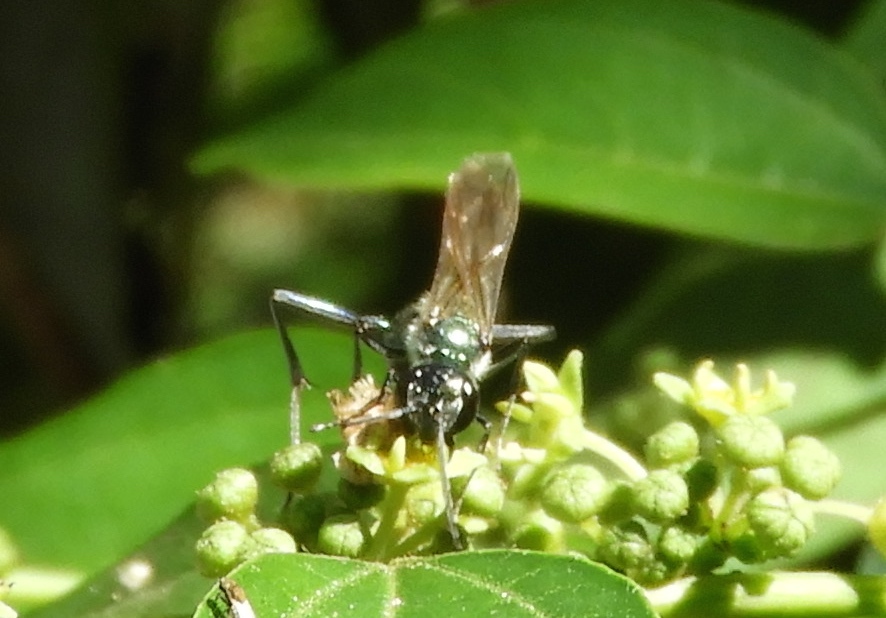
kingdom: Animalia
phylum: Arthropoda
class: Insecta
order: Hymenoptera
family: Sphecidae
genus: Chalybion
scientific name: Chalybion
